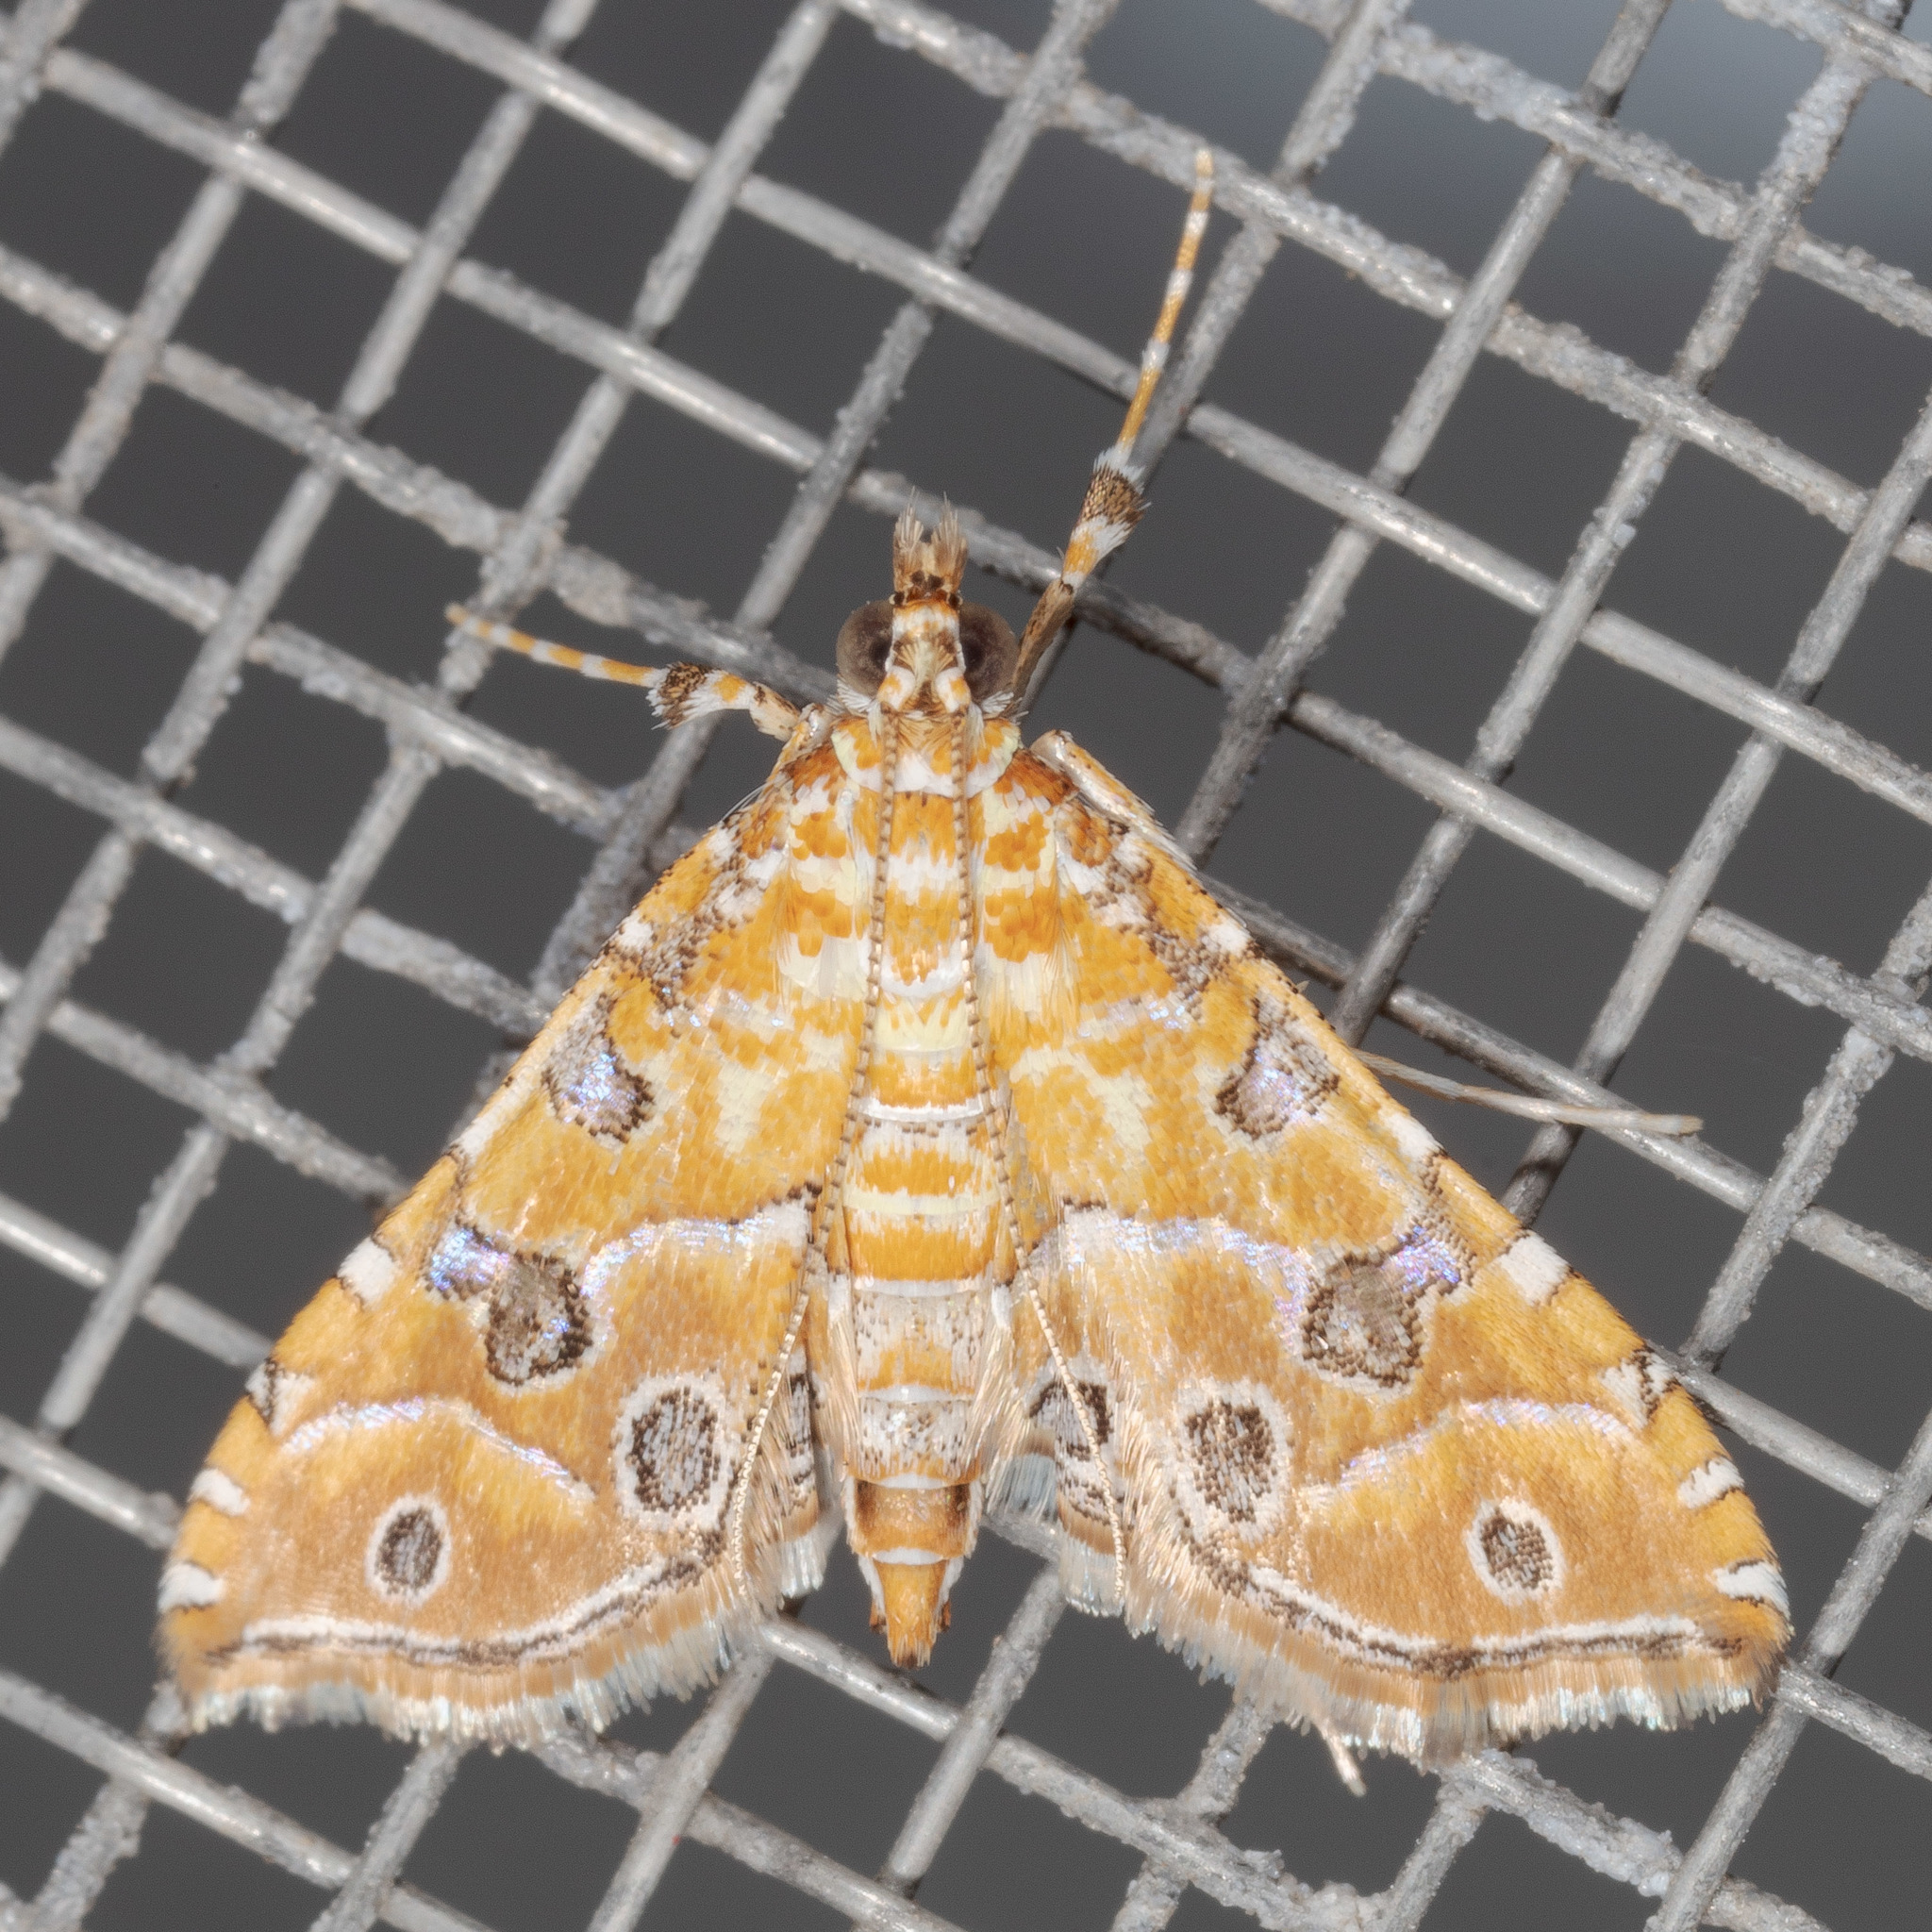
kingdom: Animalia
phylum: Arthropoda
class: Insecta
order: Lepidoptera
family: Crambidae
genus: Ommatospila
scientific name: Ommatospila narcaeusalis
